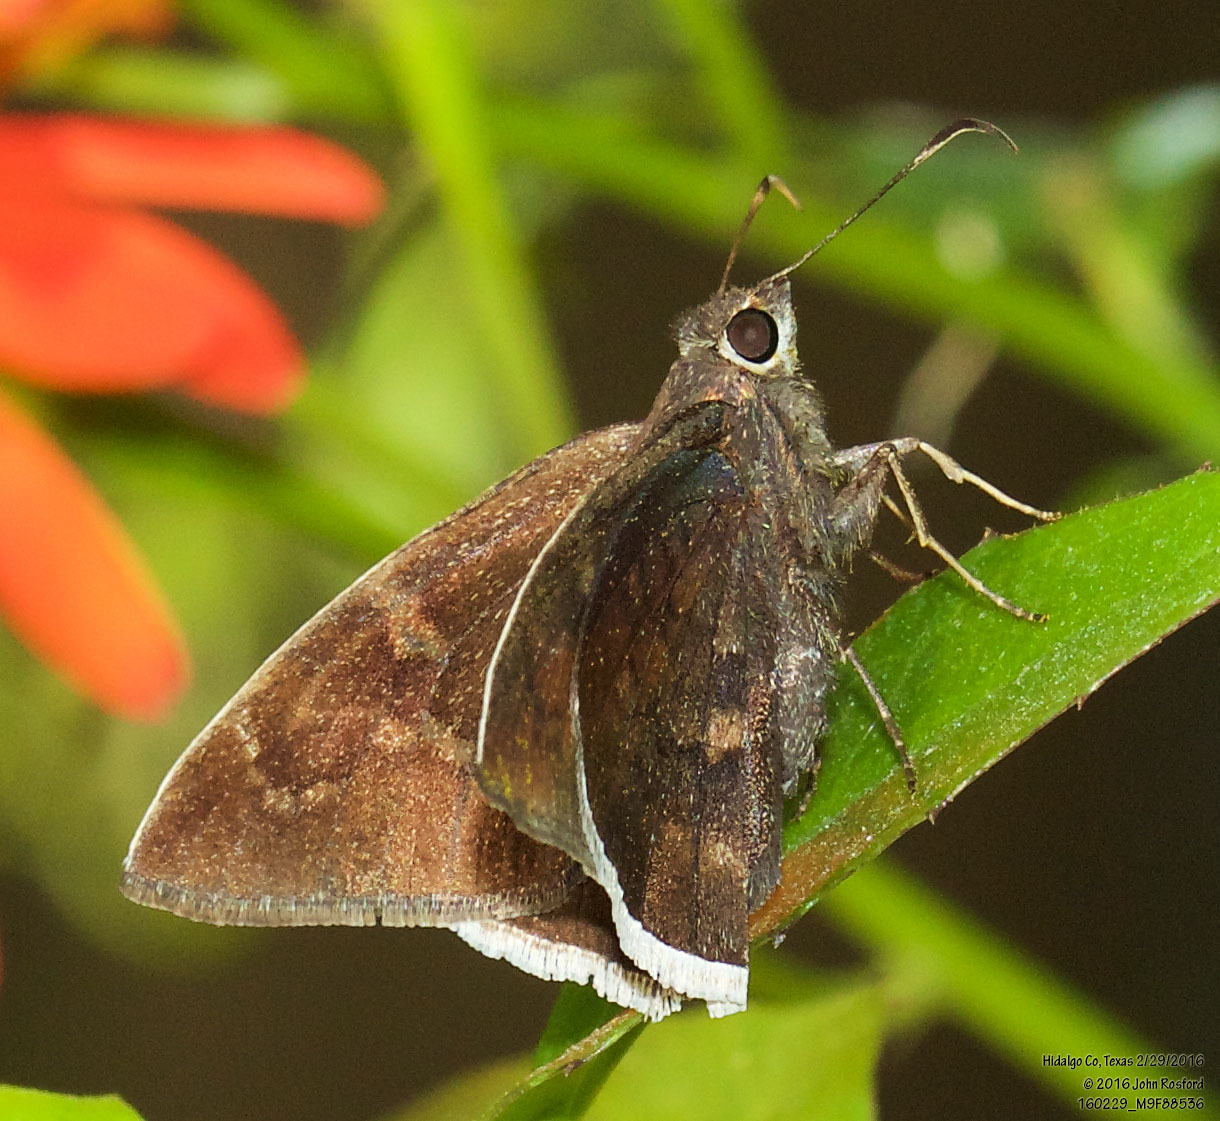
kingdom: Animalia
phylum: Arthropoda
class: Insecta
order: Lepidoptera
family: Hesperiidae
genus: Achalarus
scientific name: Achalarus Murgaria albociliatus
